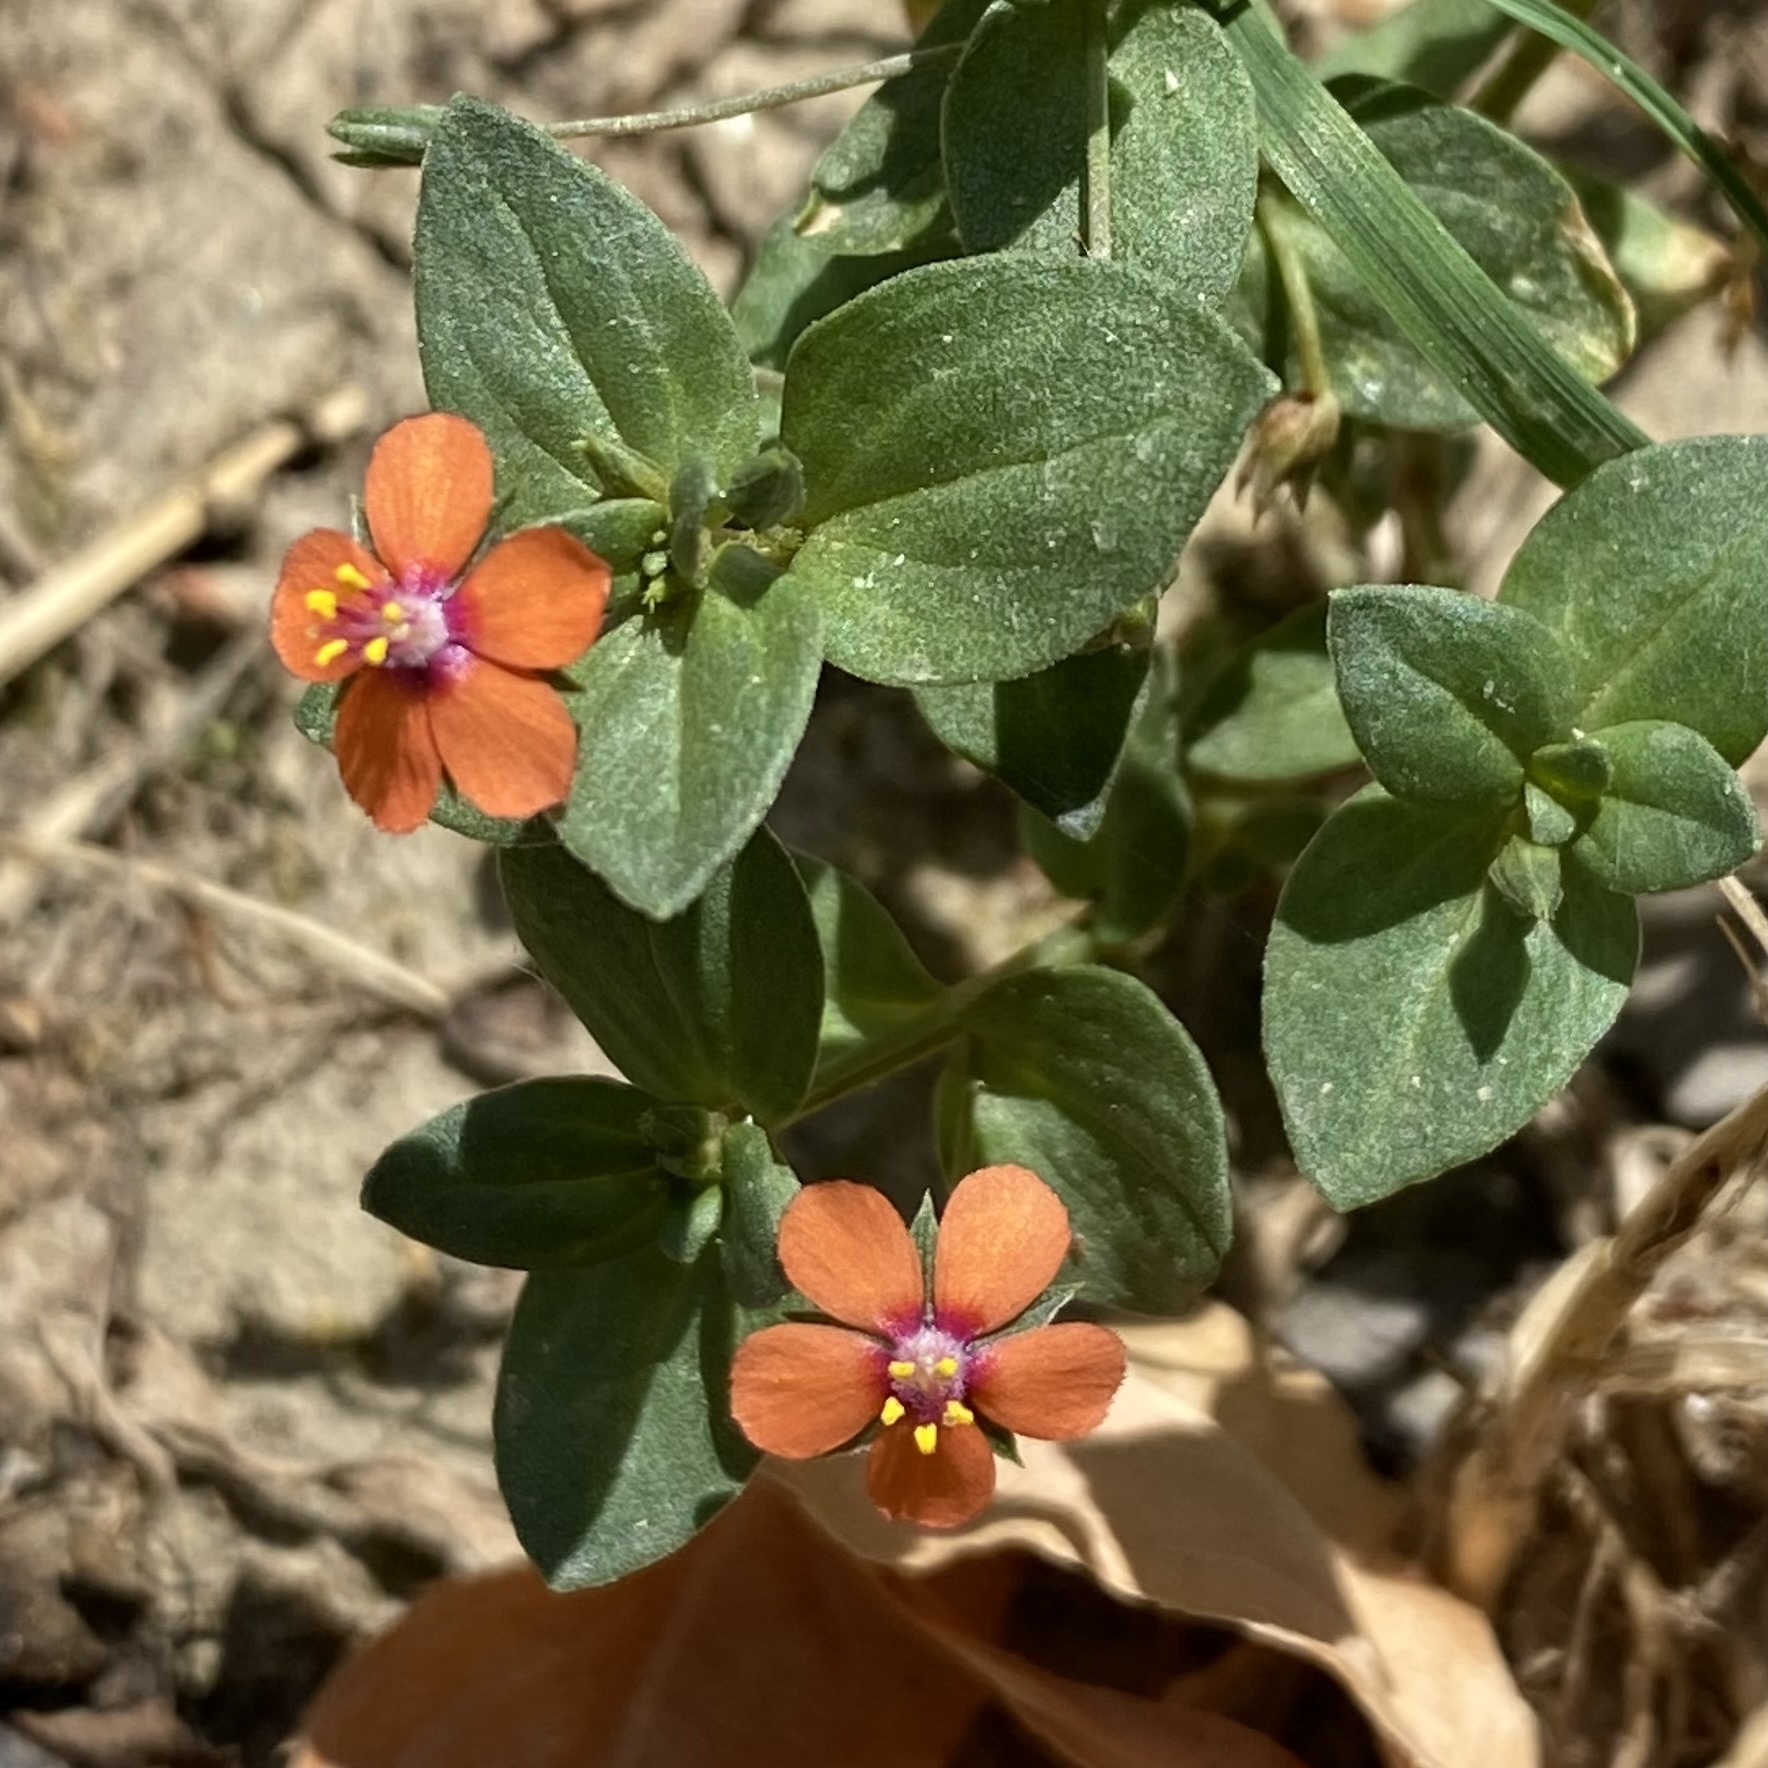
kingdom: Plantae
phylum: Tracheophyta
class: Magnoliopsida
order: Ericales
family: Primulaceae
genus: Lysimachia
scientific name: Lysimachia arvensis
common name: Scarlet pimpernel
